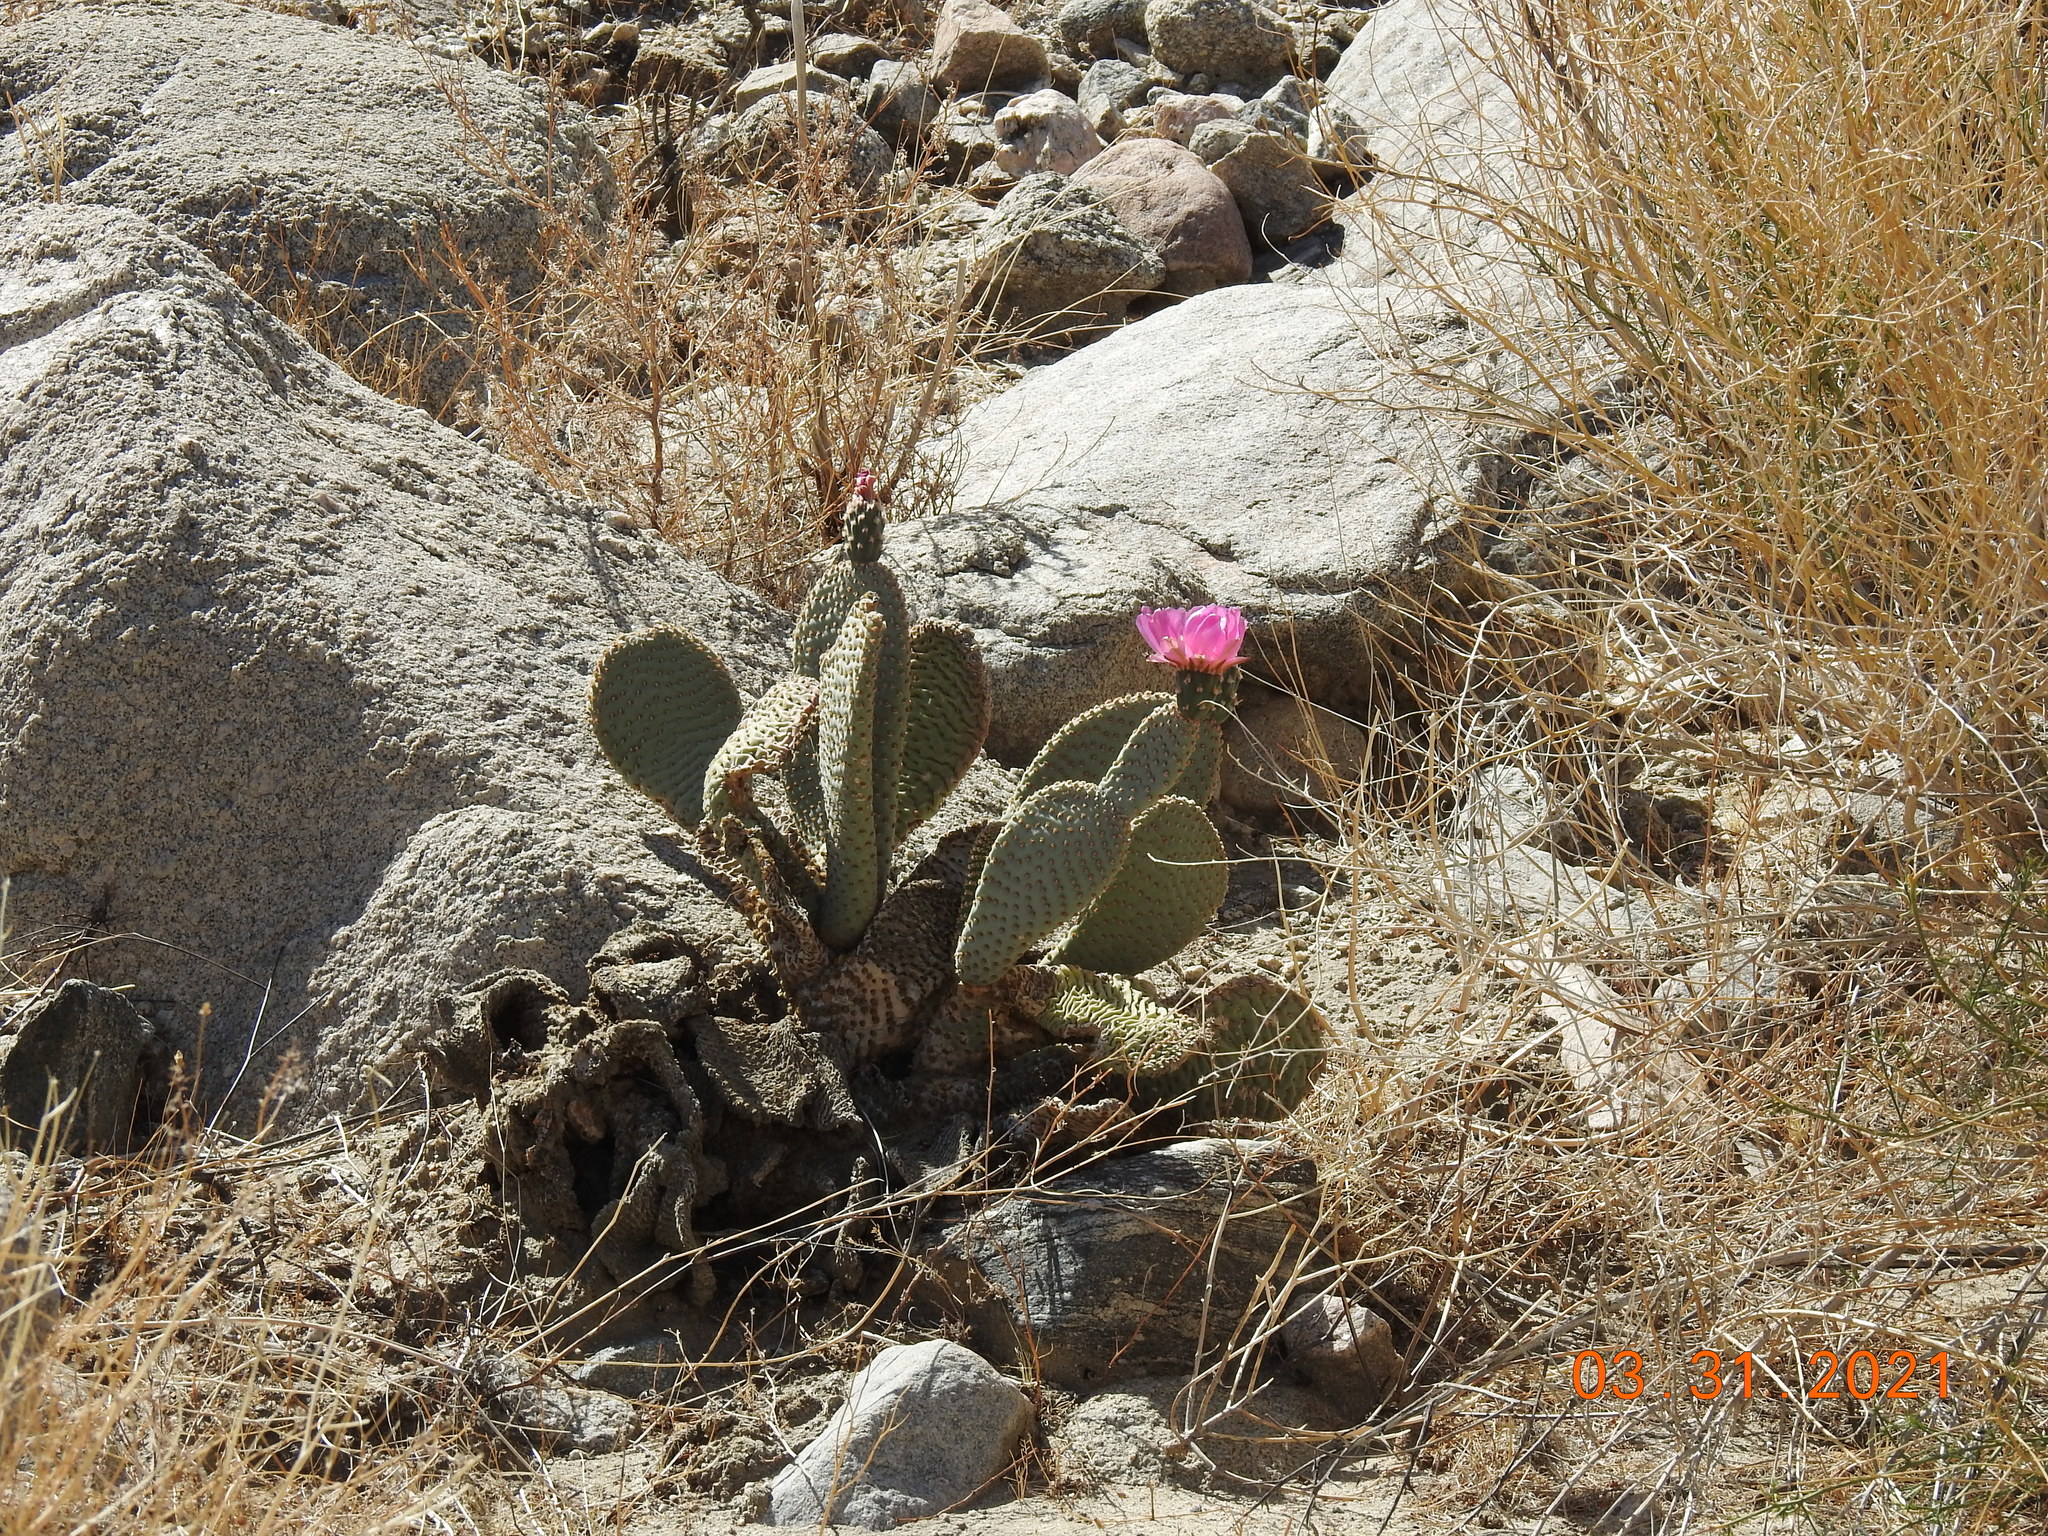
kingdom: Plantae
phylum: Tracheophyta
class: Magnoliopsida
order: Caryophyllales
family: Cactaceae
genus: Opuntia
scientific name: Opuntia basilaris
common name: Beavertail prickly-pear
